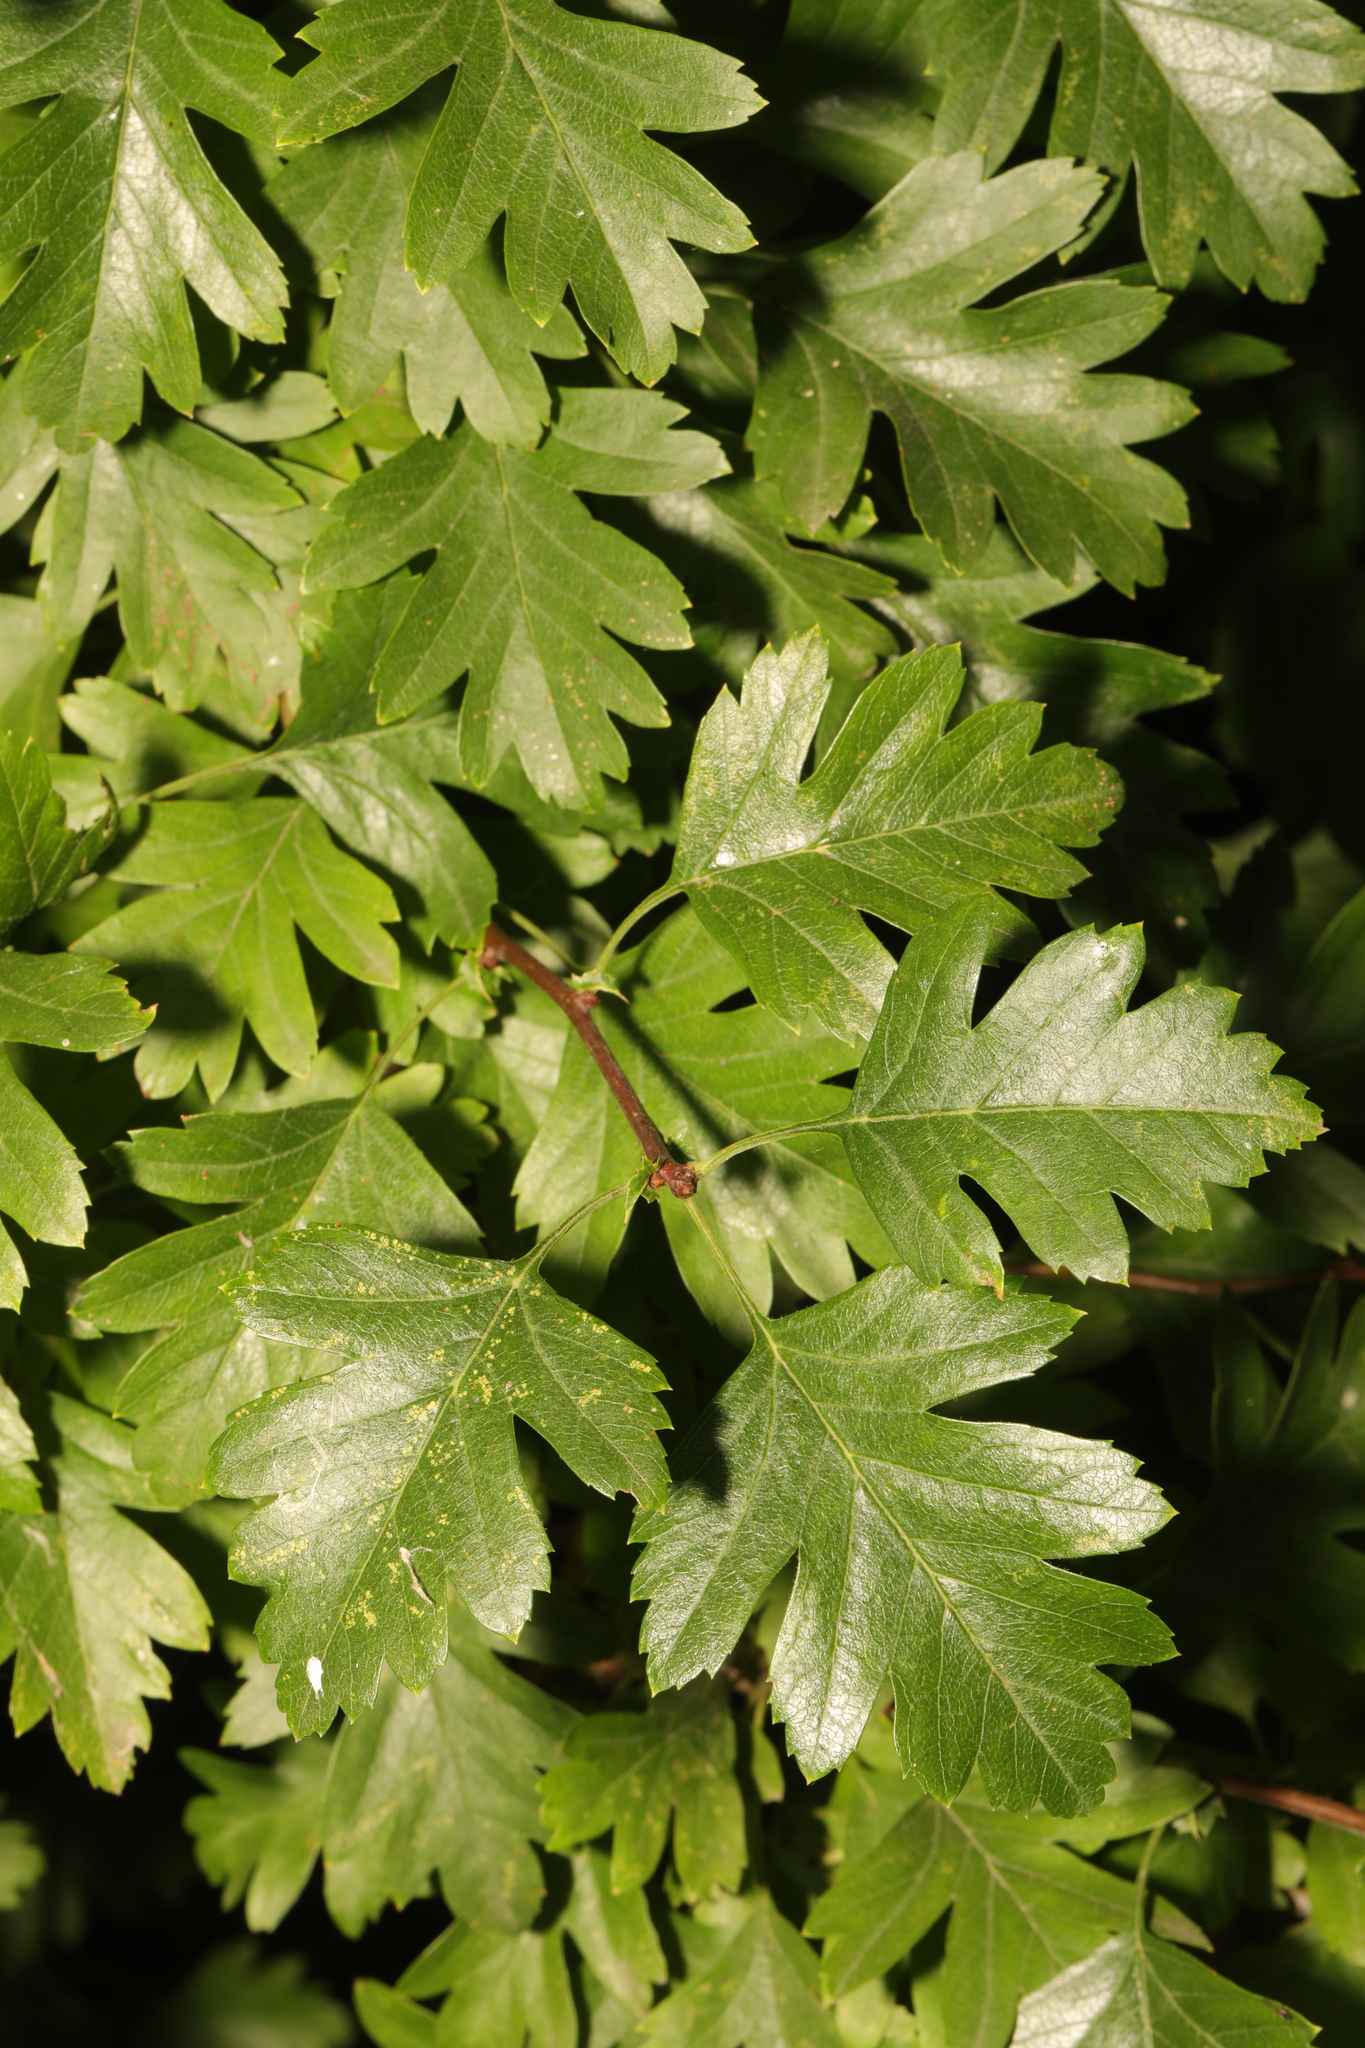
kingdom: Plantae
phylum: Tracheophyta
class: Magnoliopsida
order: Rosales
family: Rosaceae
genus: Crataegus
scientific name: Crataegus monogyna
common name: Hawthorn
